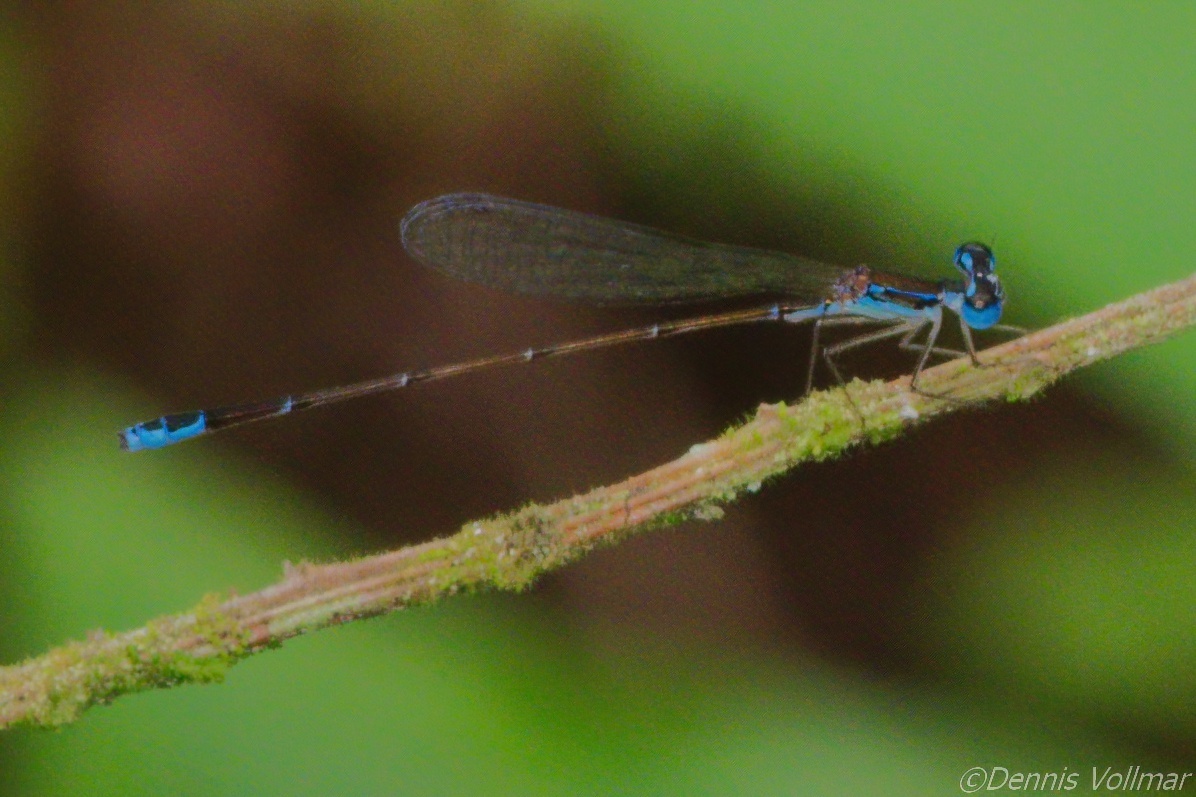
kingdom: Animalia
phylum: Arthropoda
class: Insecta
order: Odonata
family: Coenagrionidae
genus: Nehalennia
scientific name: Nehalennia pallidula
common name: Everglades sprite
